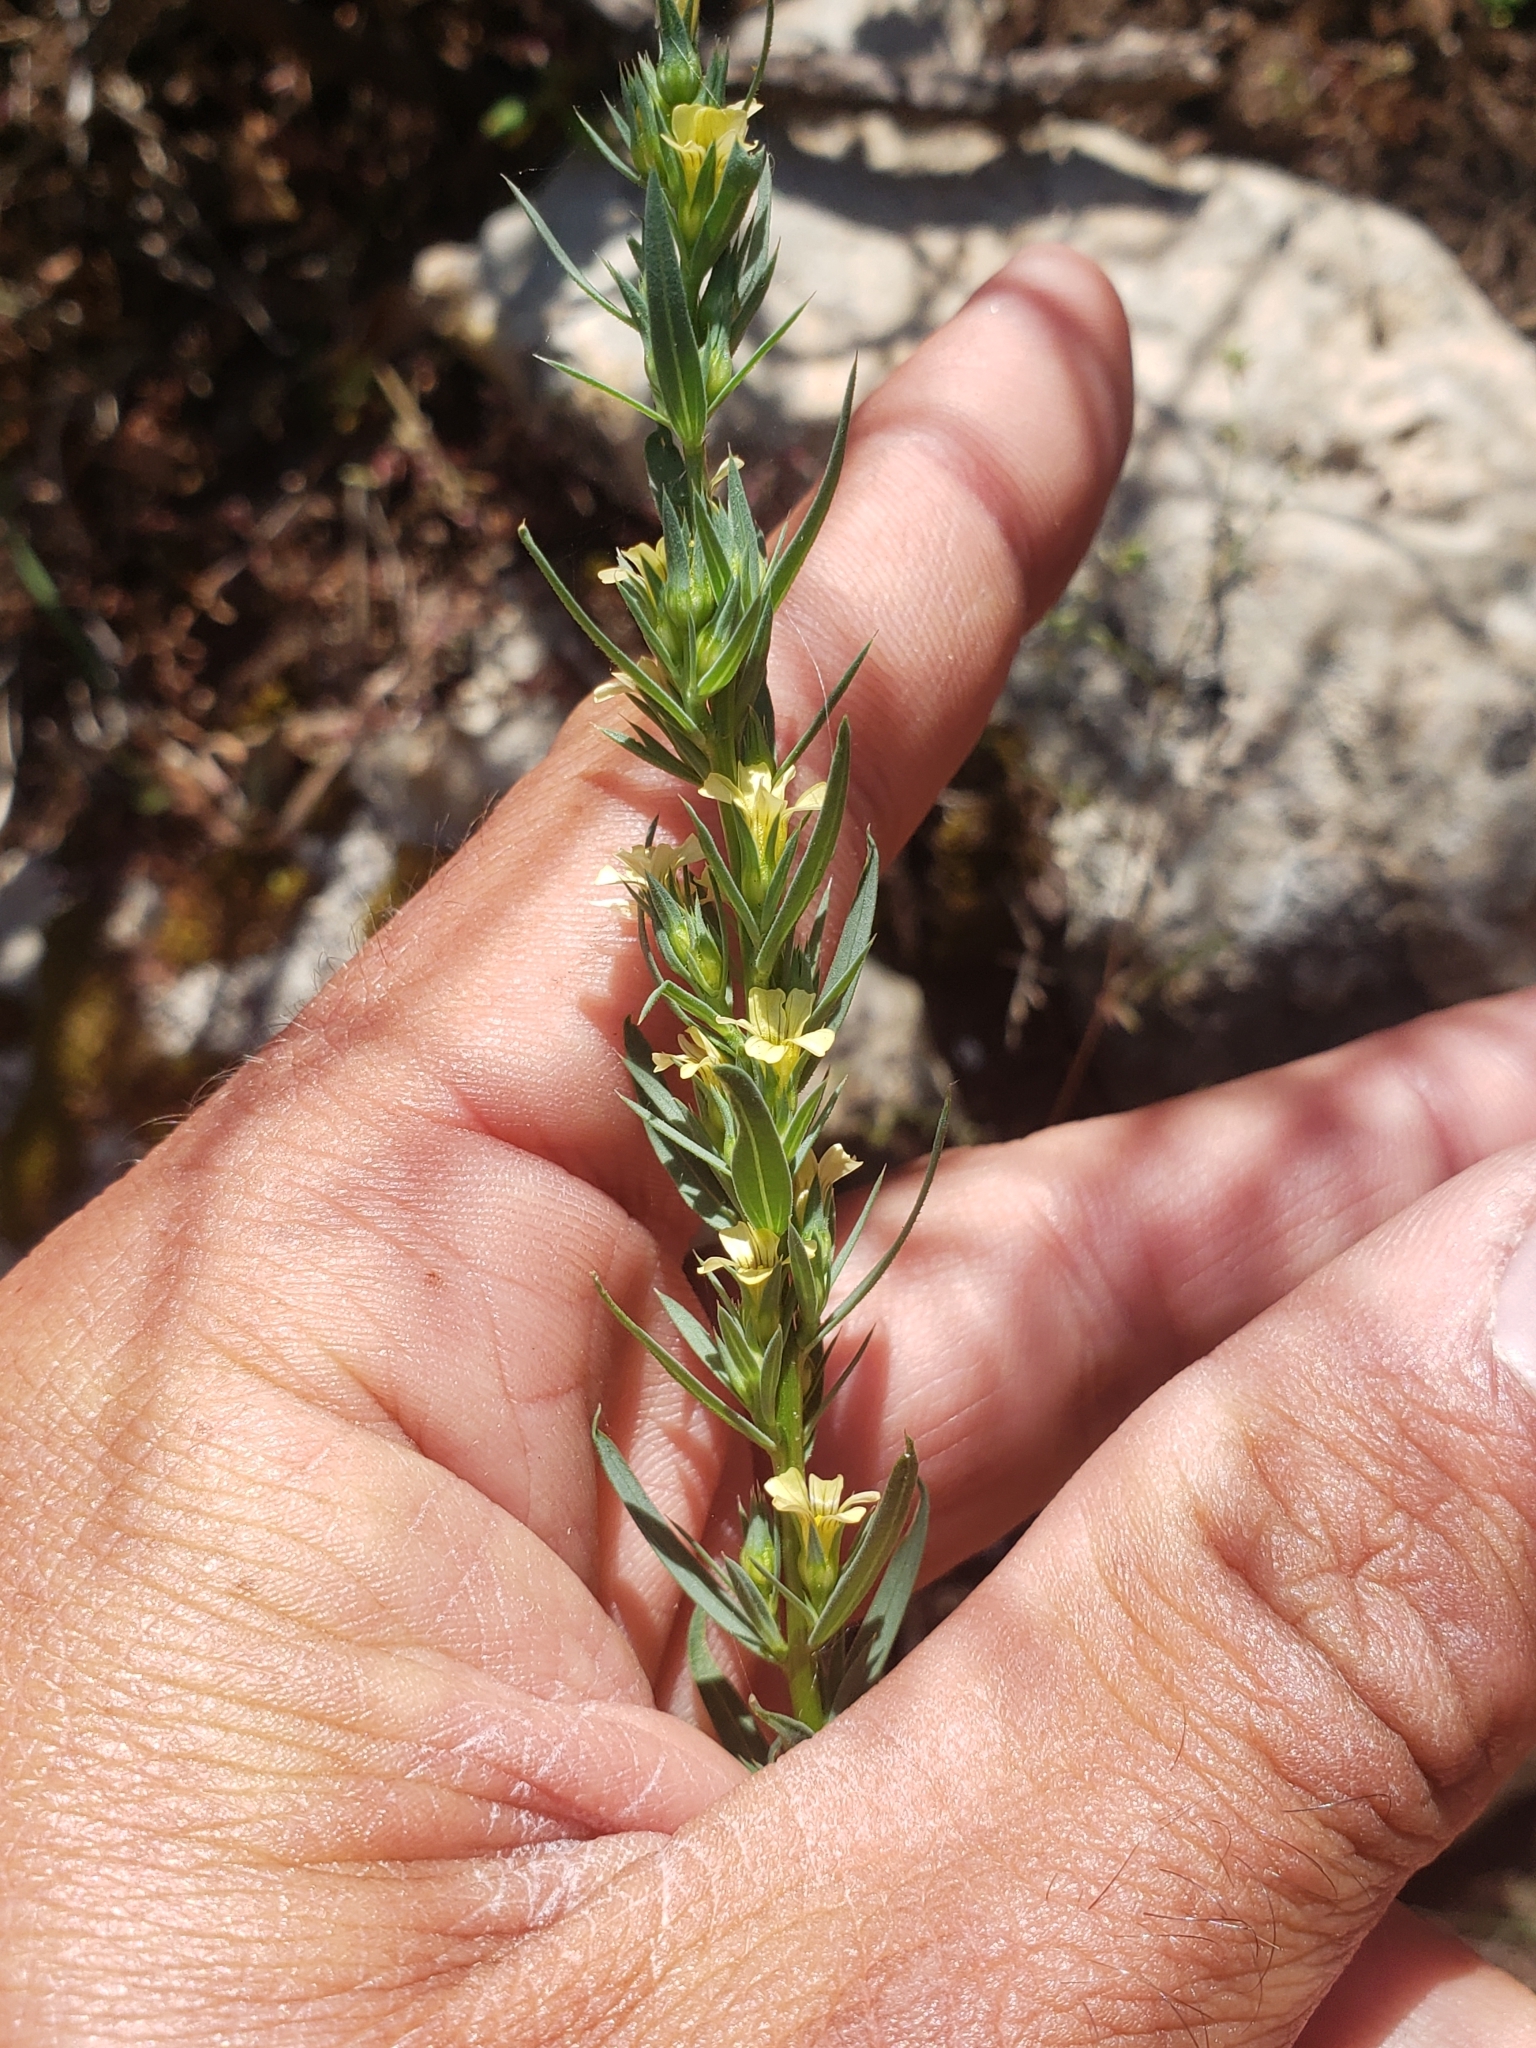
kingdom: Plantae
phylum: Tracheophyta
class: Magnoliopsida
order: Malpighiales
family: Linaceae
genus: Linum
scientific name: Linum strictum
